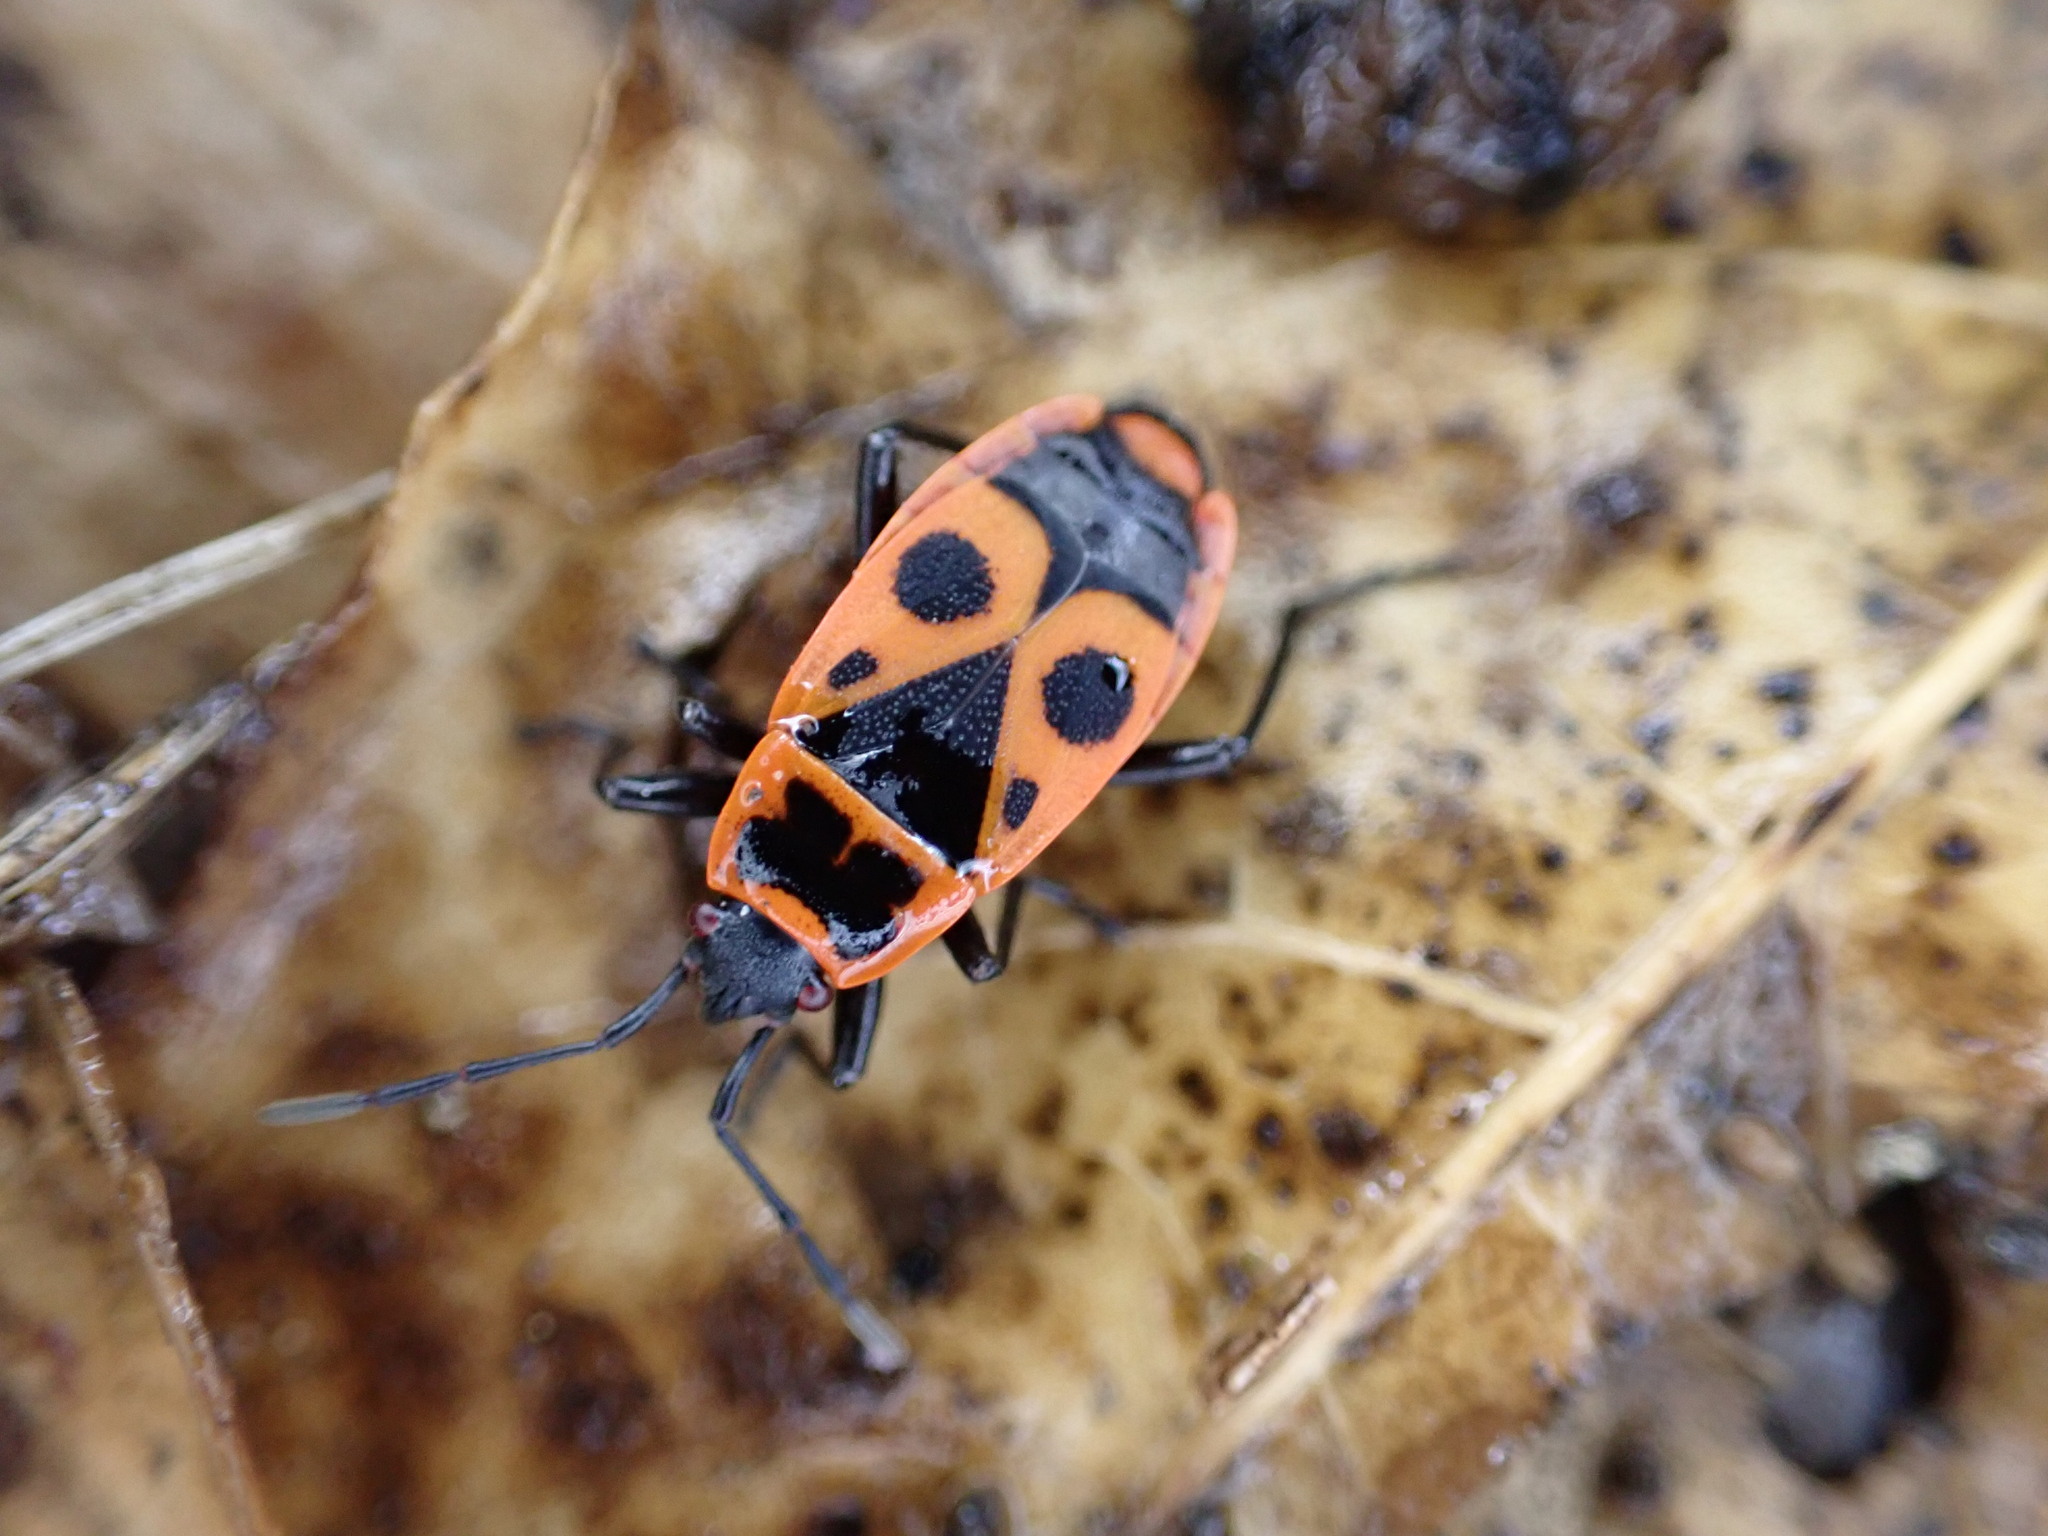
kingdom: Animalia
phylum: Arthropoda
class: Insecta
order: Hemiptera
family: Pyrrhocoridae
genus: Pyrrhocoris
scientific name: Pyrrhocoris apterus
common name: Firebug
